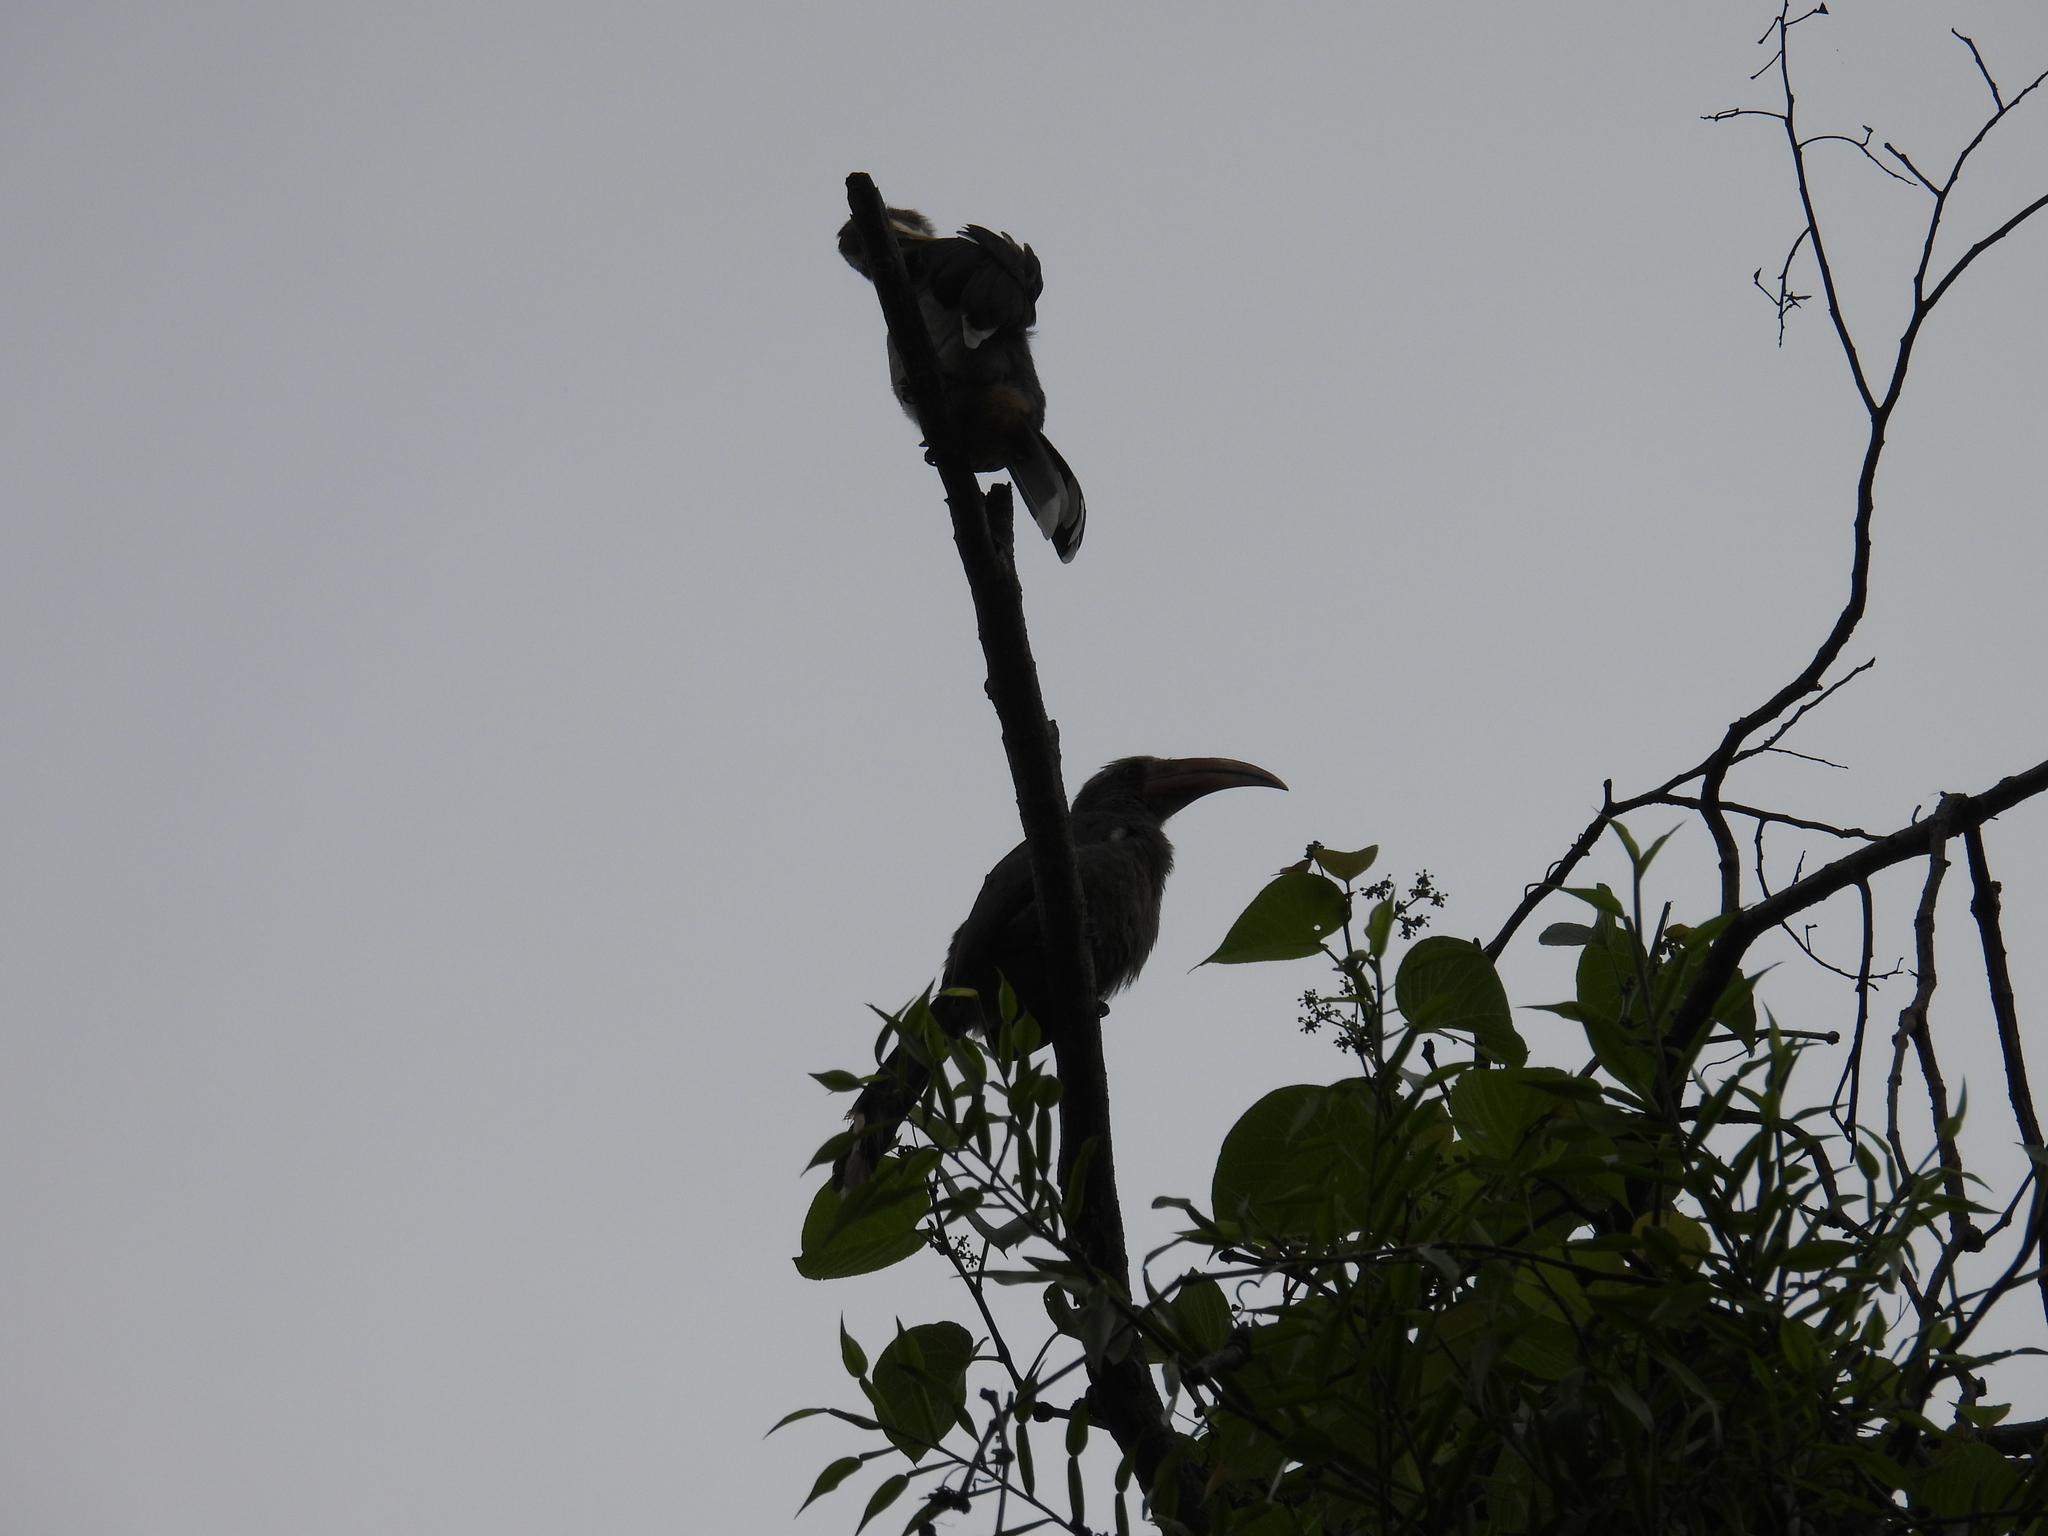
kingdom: Animalia
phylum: Chordata
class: Aves
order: Bucerotiformes
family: Bucerotidae
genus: Ocyceros
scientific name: Ocyceros griseus
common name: Malabar grey hornbill
